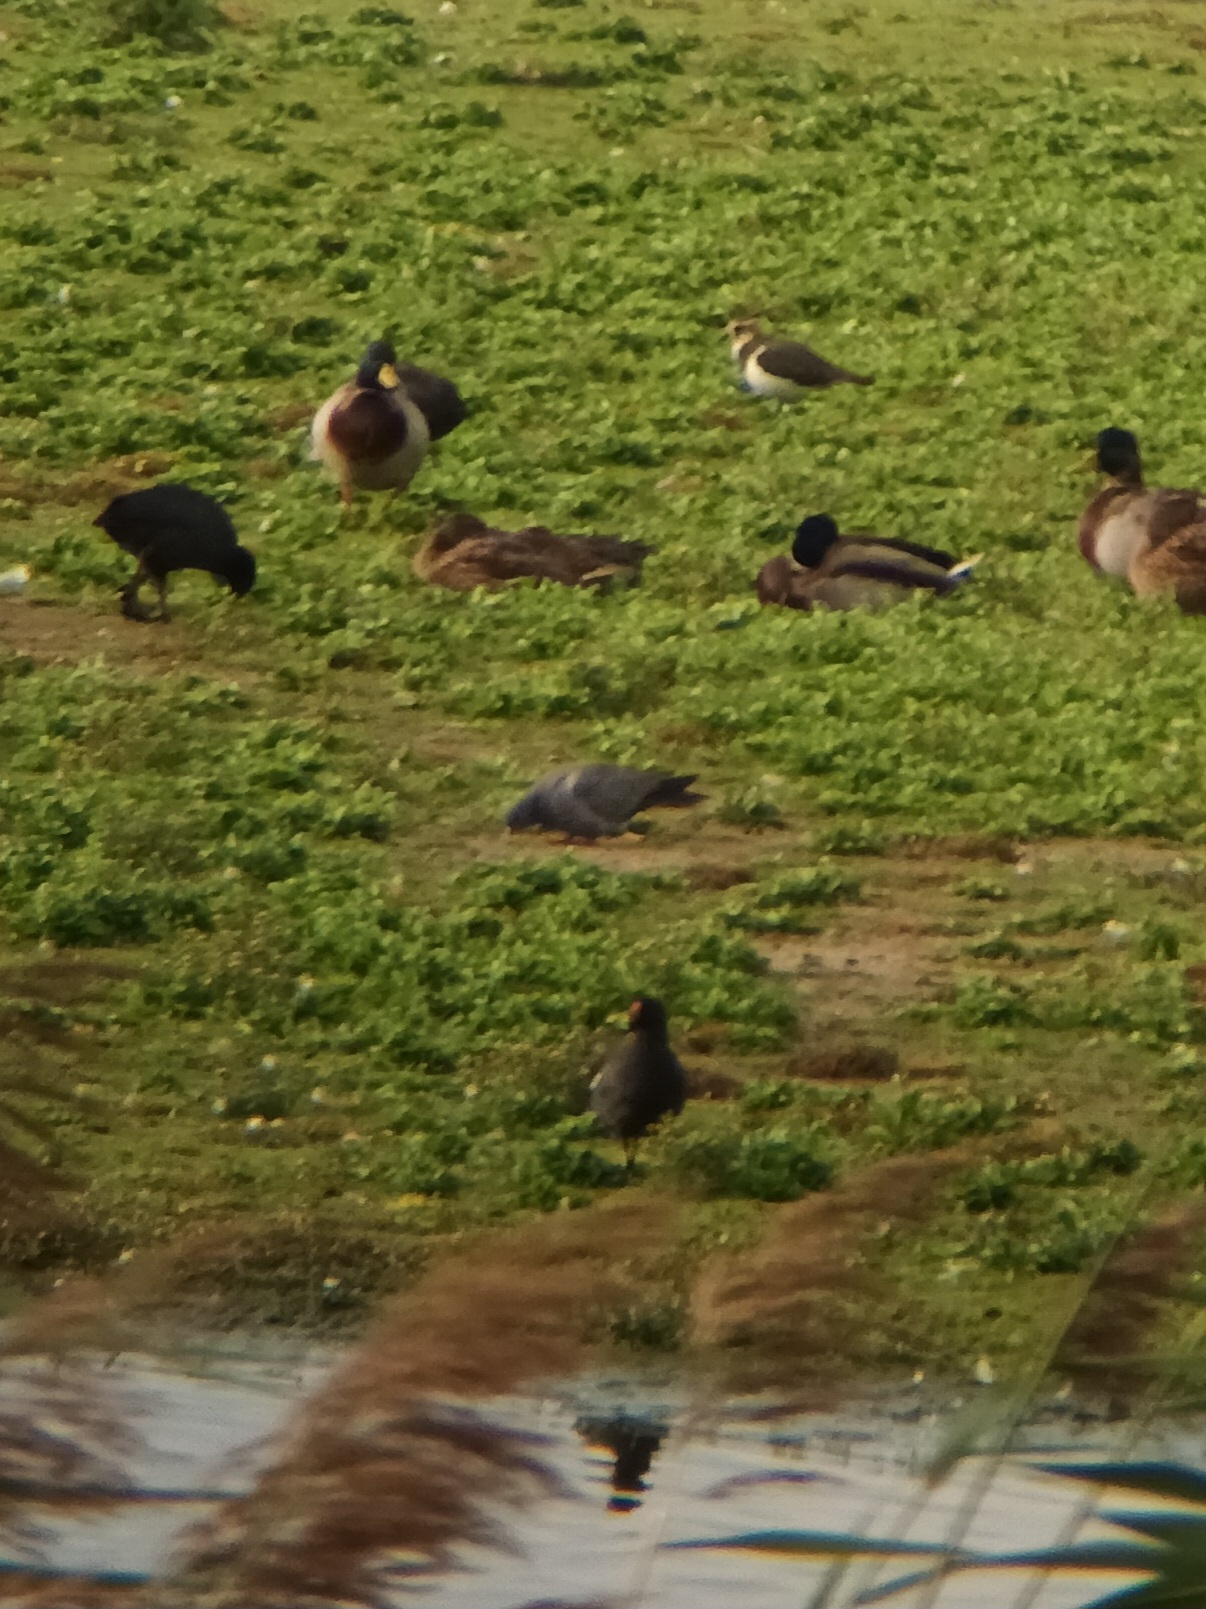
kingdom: Animalia
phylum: Chordata
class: Aves
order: Columbiformes
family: Columbidae
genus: Columba
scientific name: Columba oenas
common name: Stock dove
